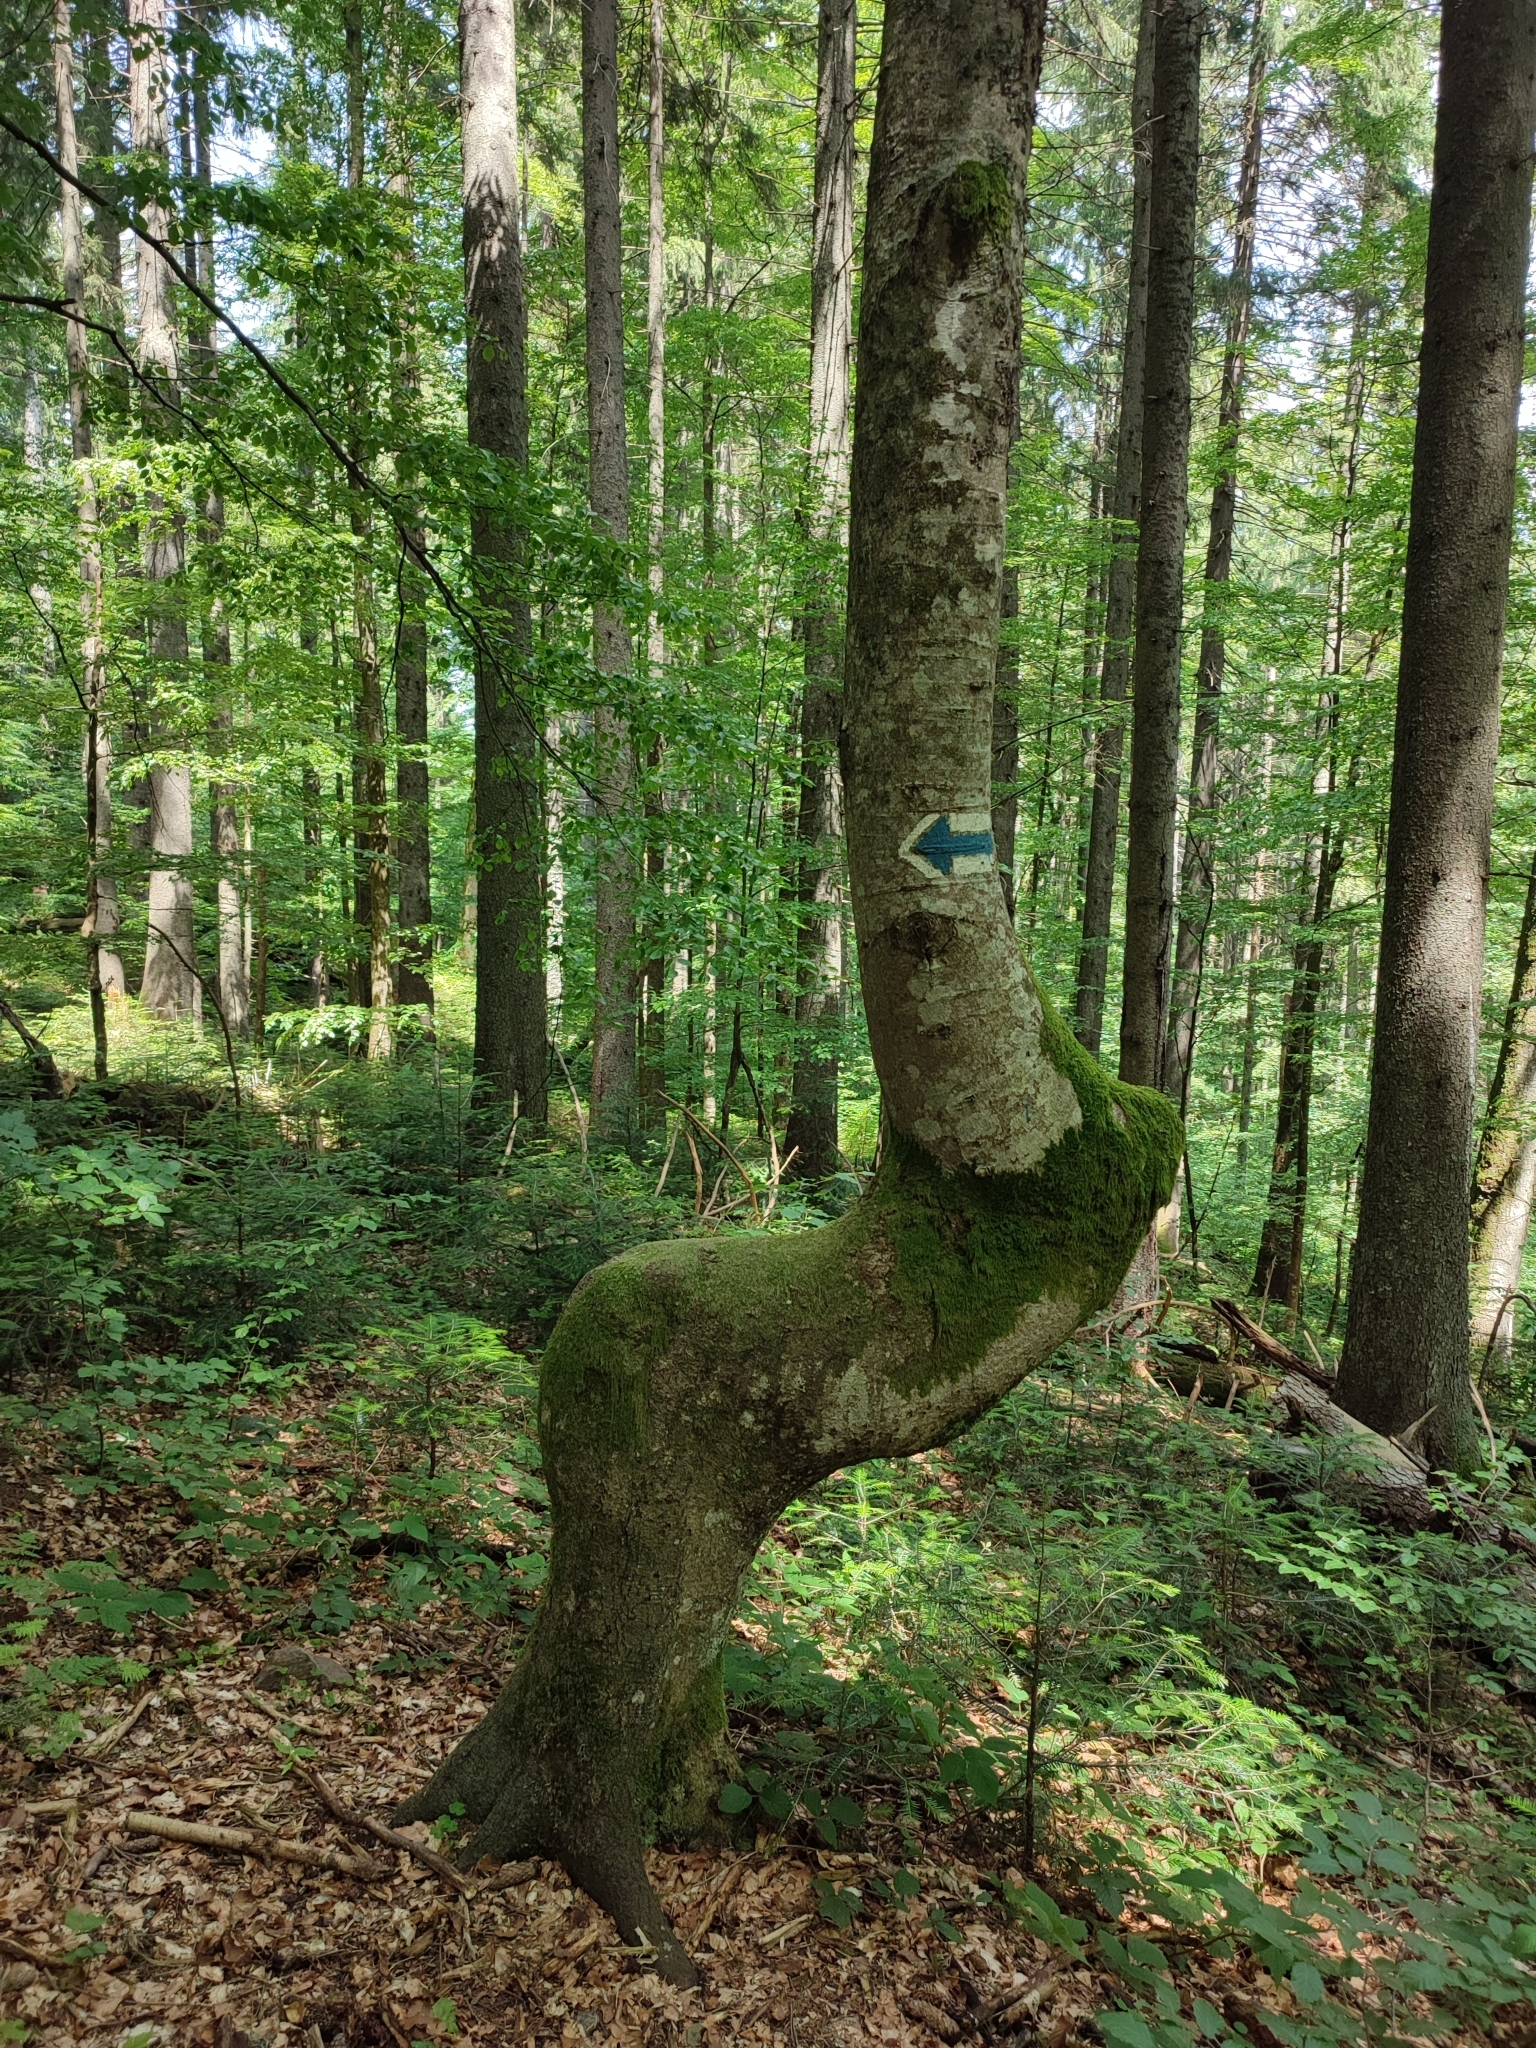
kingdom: Plantae
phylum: Tracheophyta
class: Magnoliopsida
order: Fagales
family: Fagaceae
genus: Fagus
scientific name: Fagus sylvatica
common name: Beech
